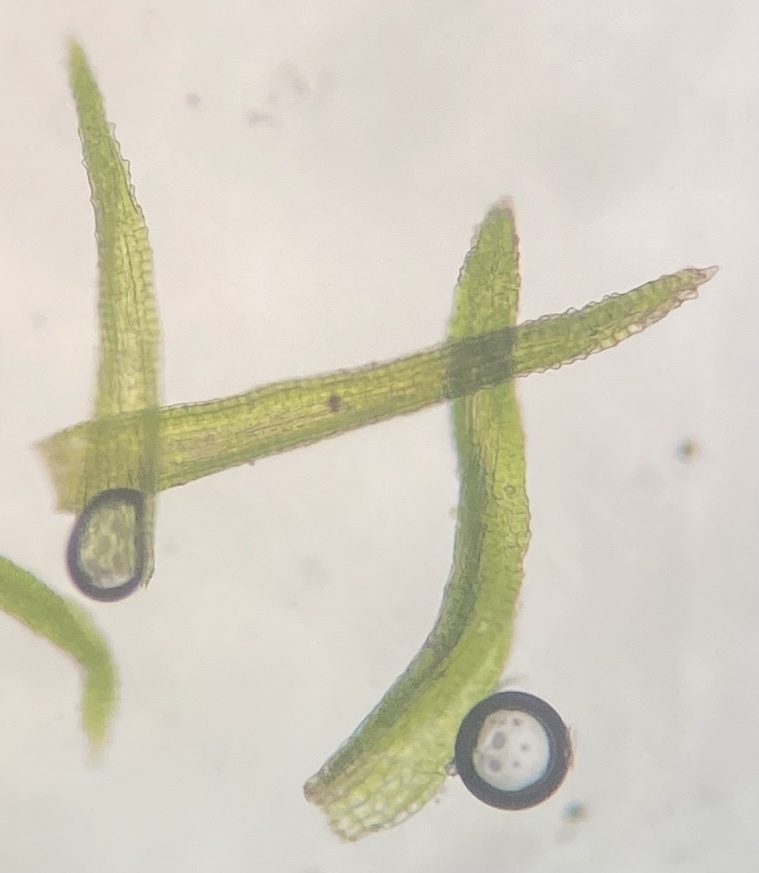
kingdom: Plantae
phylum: Bryophyta
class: Bryopsida
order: Dicranales
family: Dicranaceae
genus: Orthodicranum
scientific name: Orthodicranum montanum
